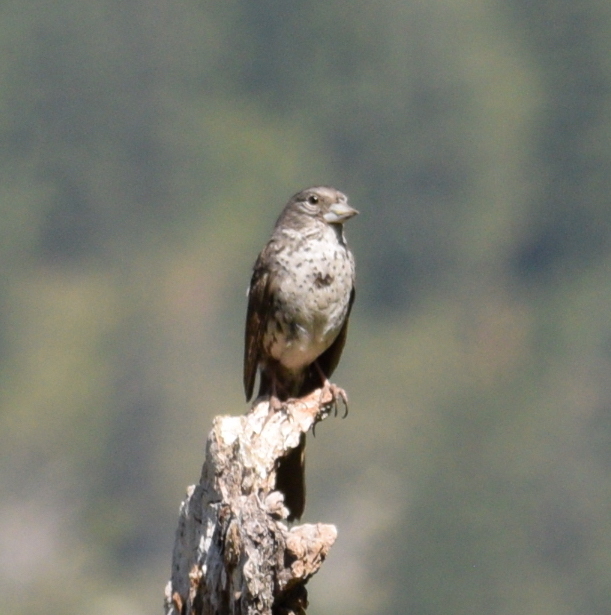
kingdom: Animalia
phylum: Chordata
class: Aves
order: Passeriformes
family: Passerellidae
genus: Passerella
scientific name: Passerella iliaca
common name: Fox sparrow
